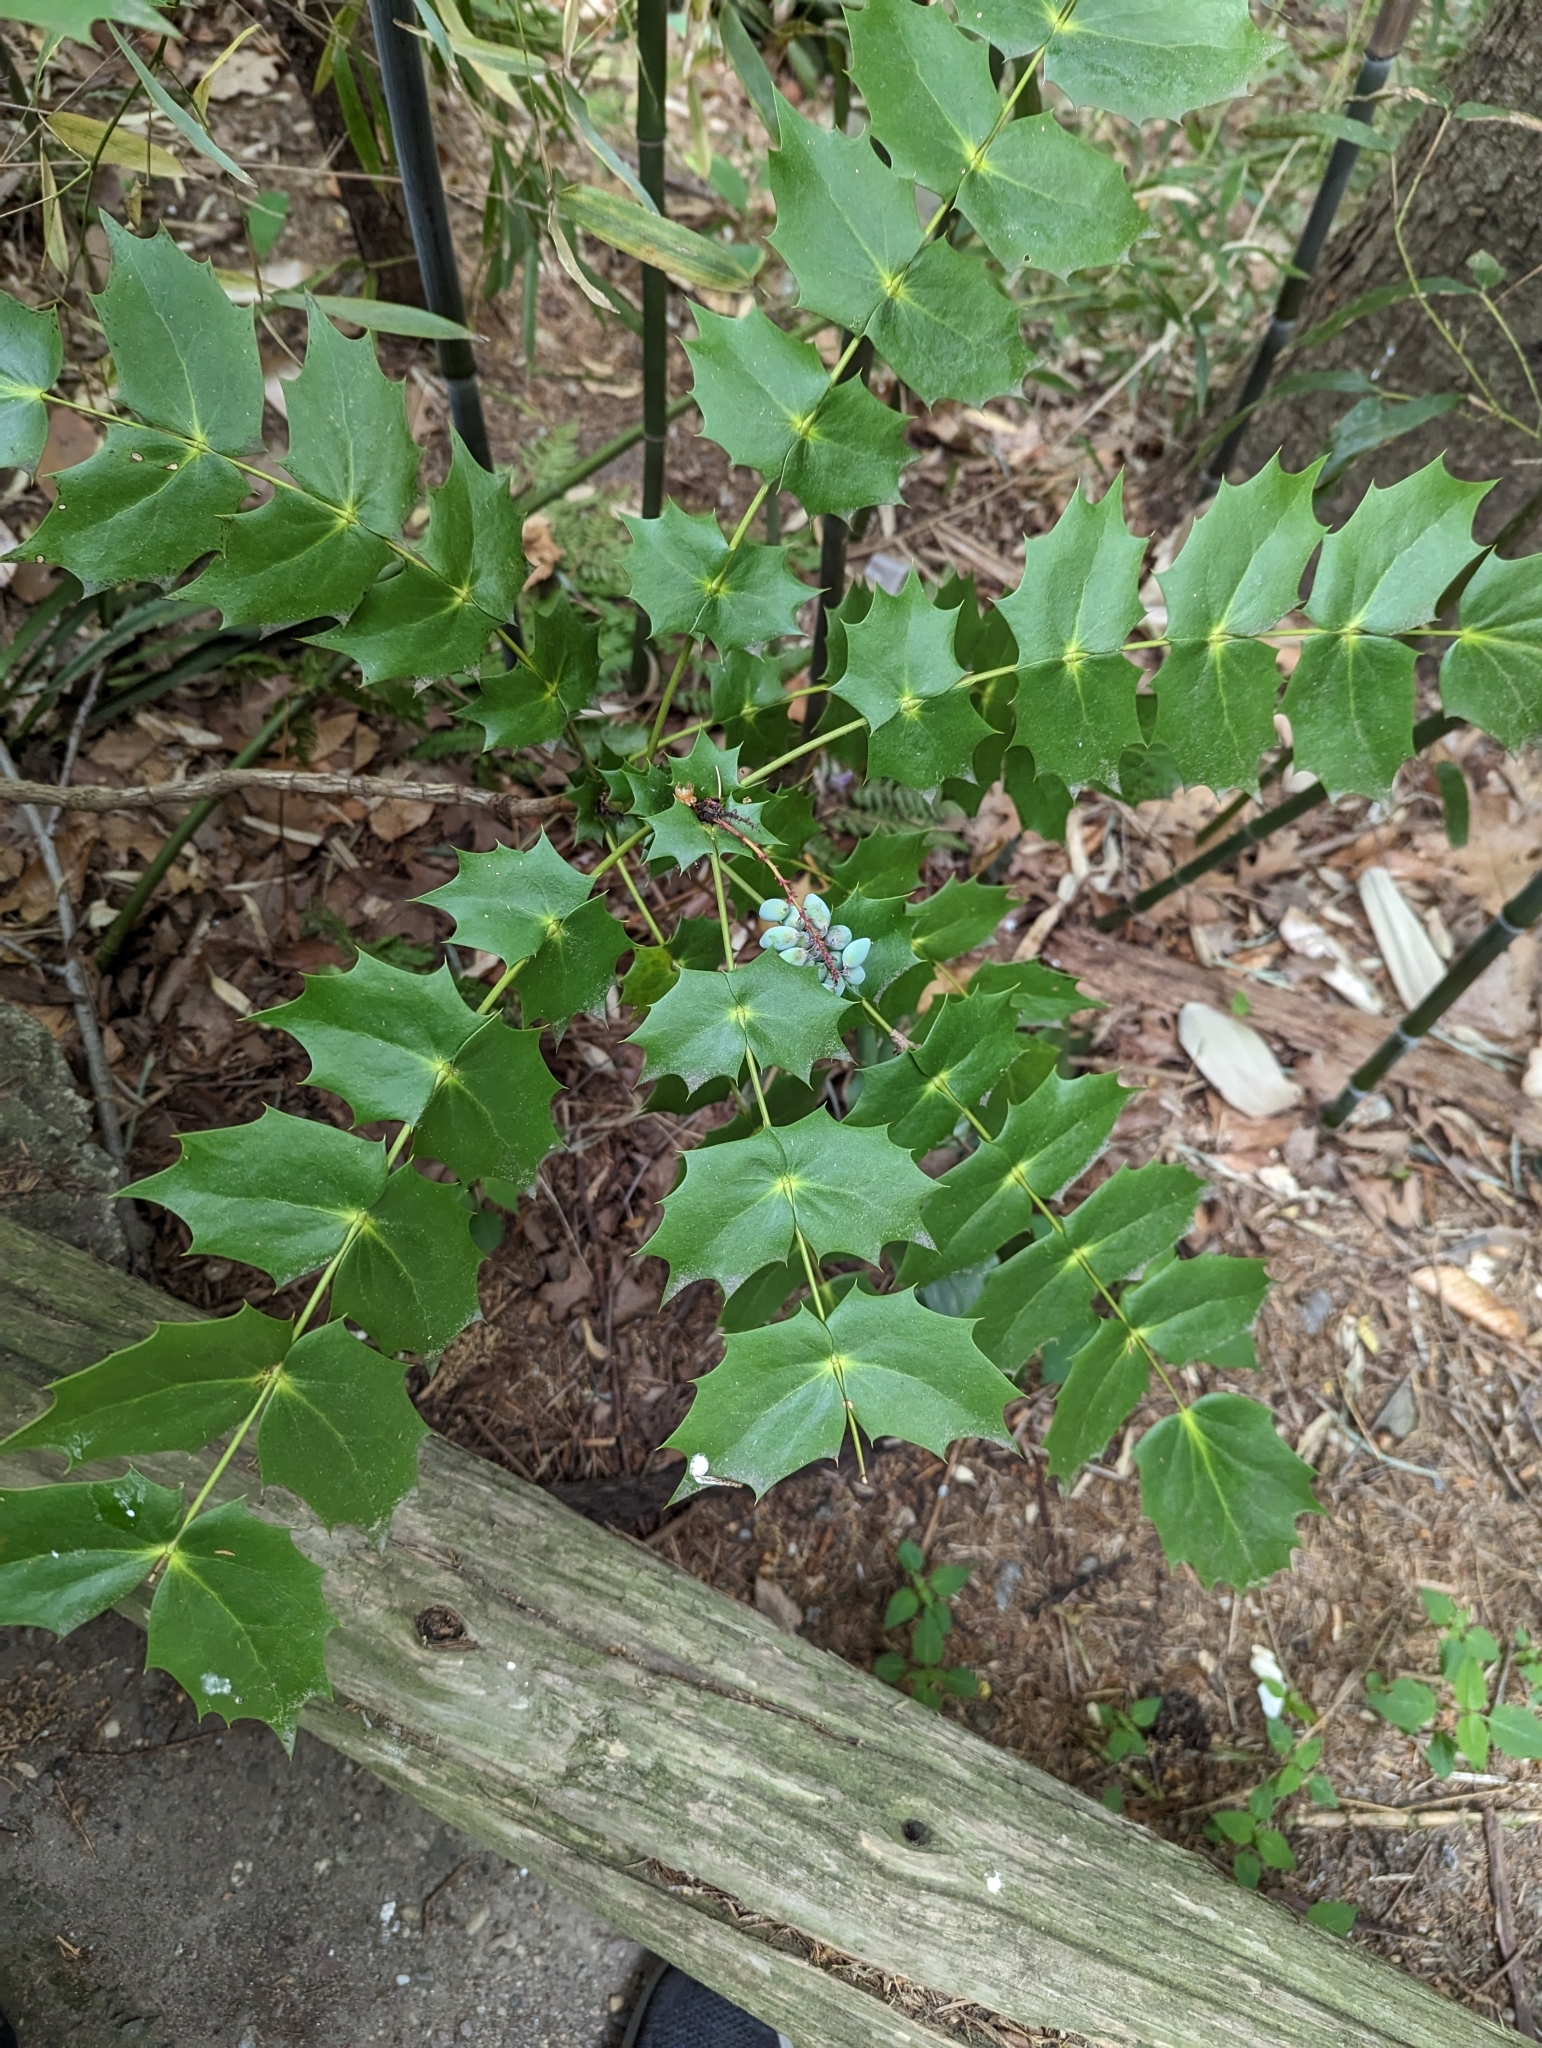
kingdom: Plantae
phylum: Tracheophyta
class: Magnoliopsida
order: Ranunculales
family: Berberidaceae
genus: Mahonia
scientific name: Mahonia bealei
